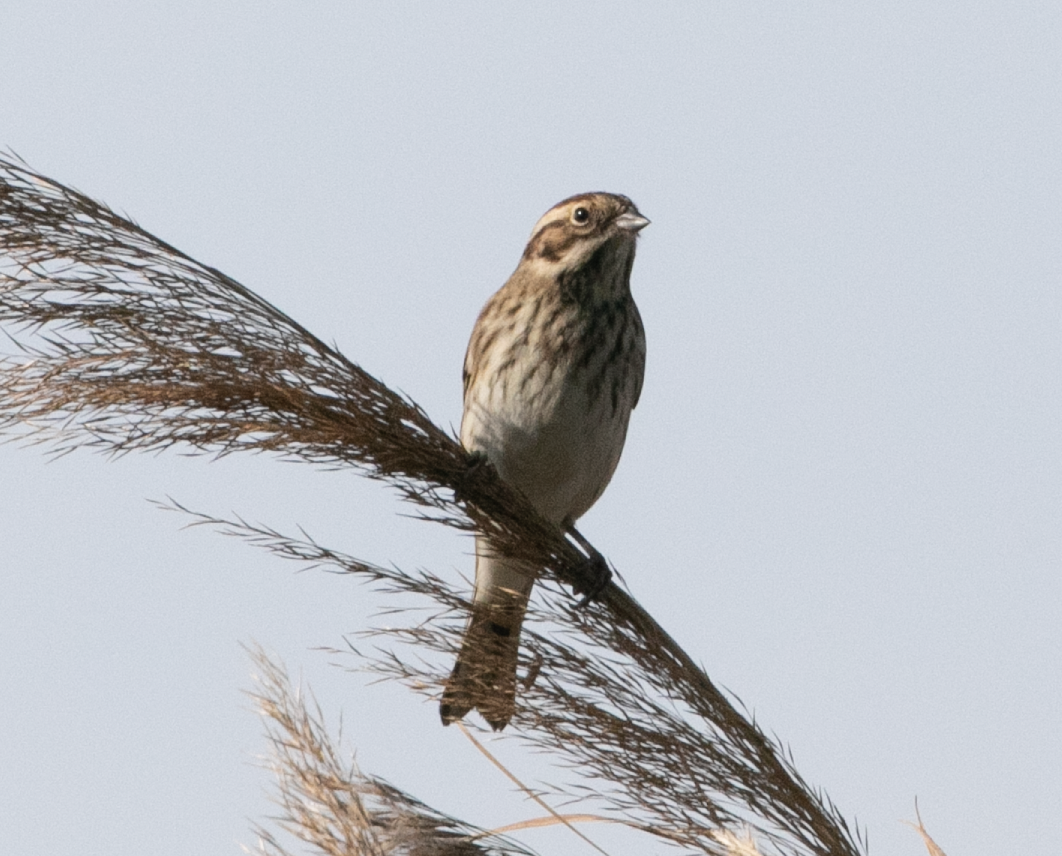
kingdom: Animalia
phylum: Chordata
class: Aves
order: Passeriformes
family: Emberizidae
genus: Emberiza
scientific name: Emberiza schoeniclus
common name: Reed bunting
